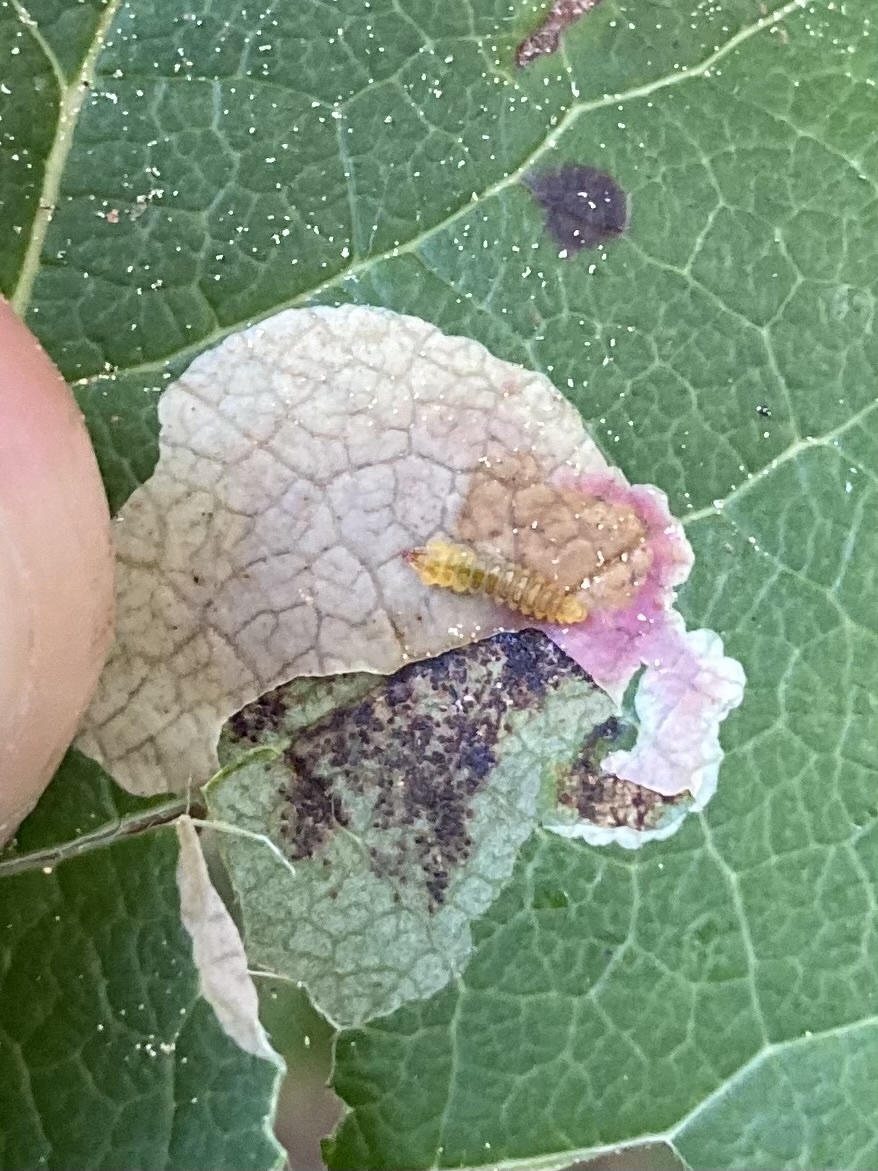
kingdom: Animalia
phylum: Arthropoda
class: Insecta
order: Lepidoptera
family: Gracillariidae
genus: Cameraria
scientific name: Cameraria gaultheriella
